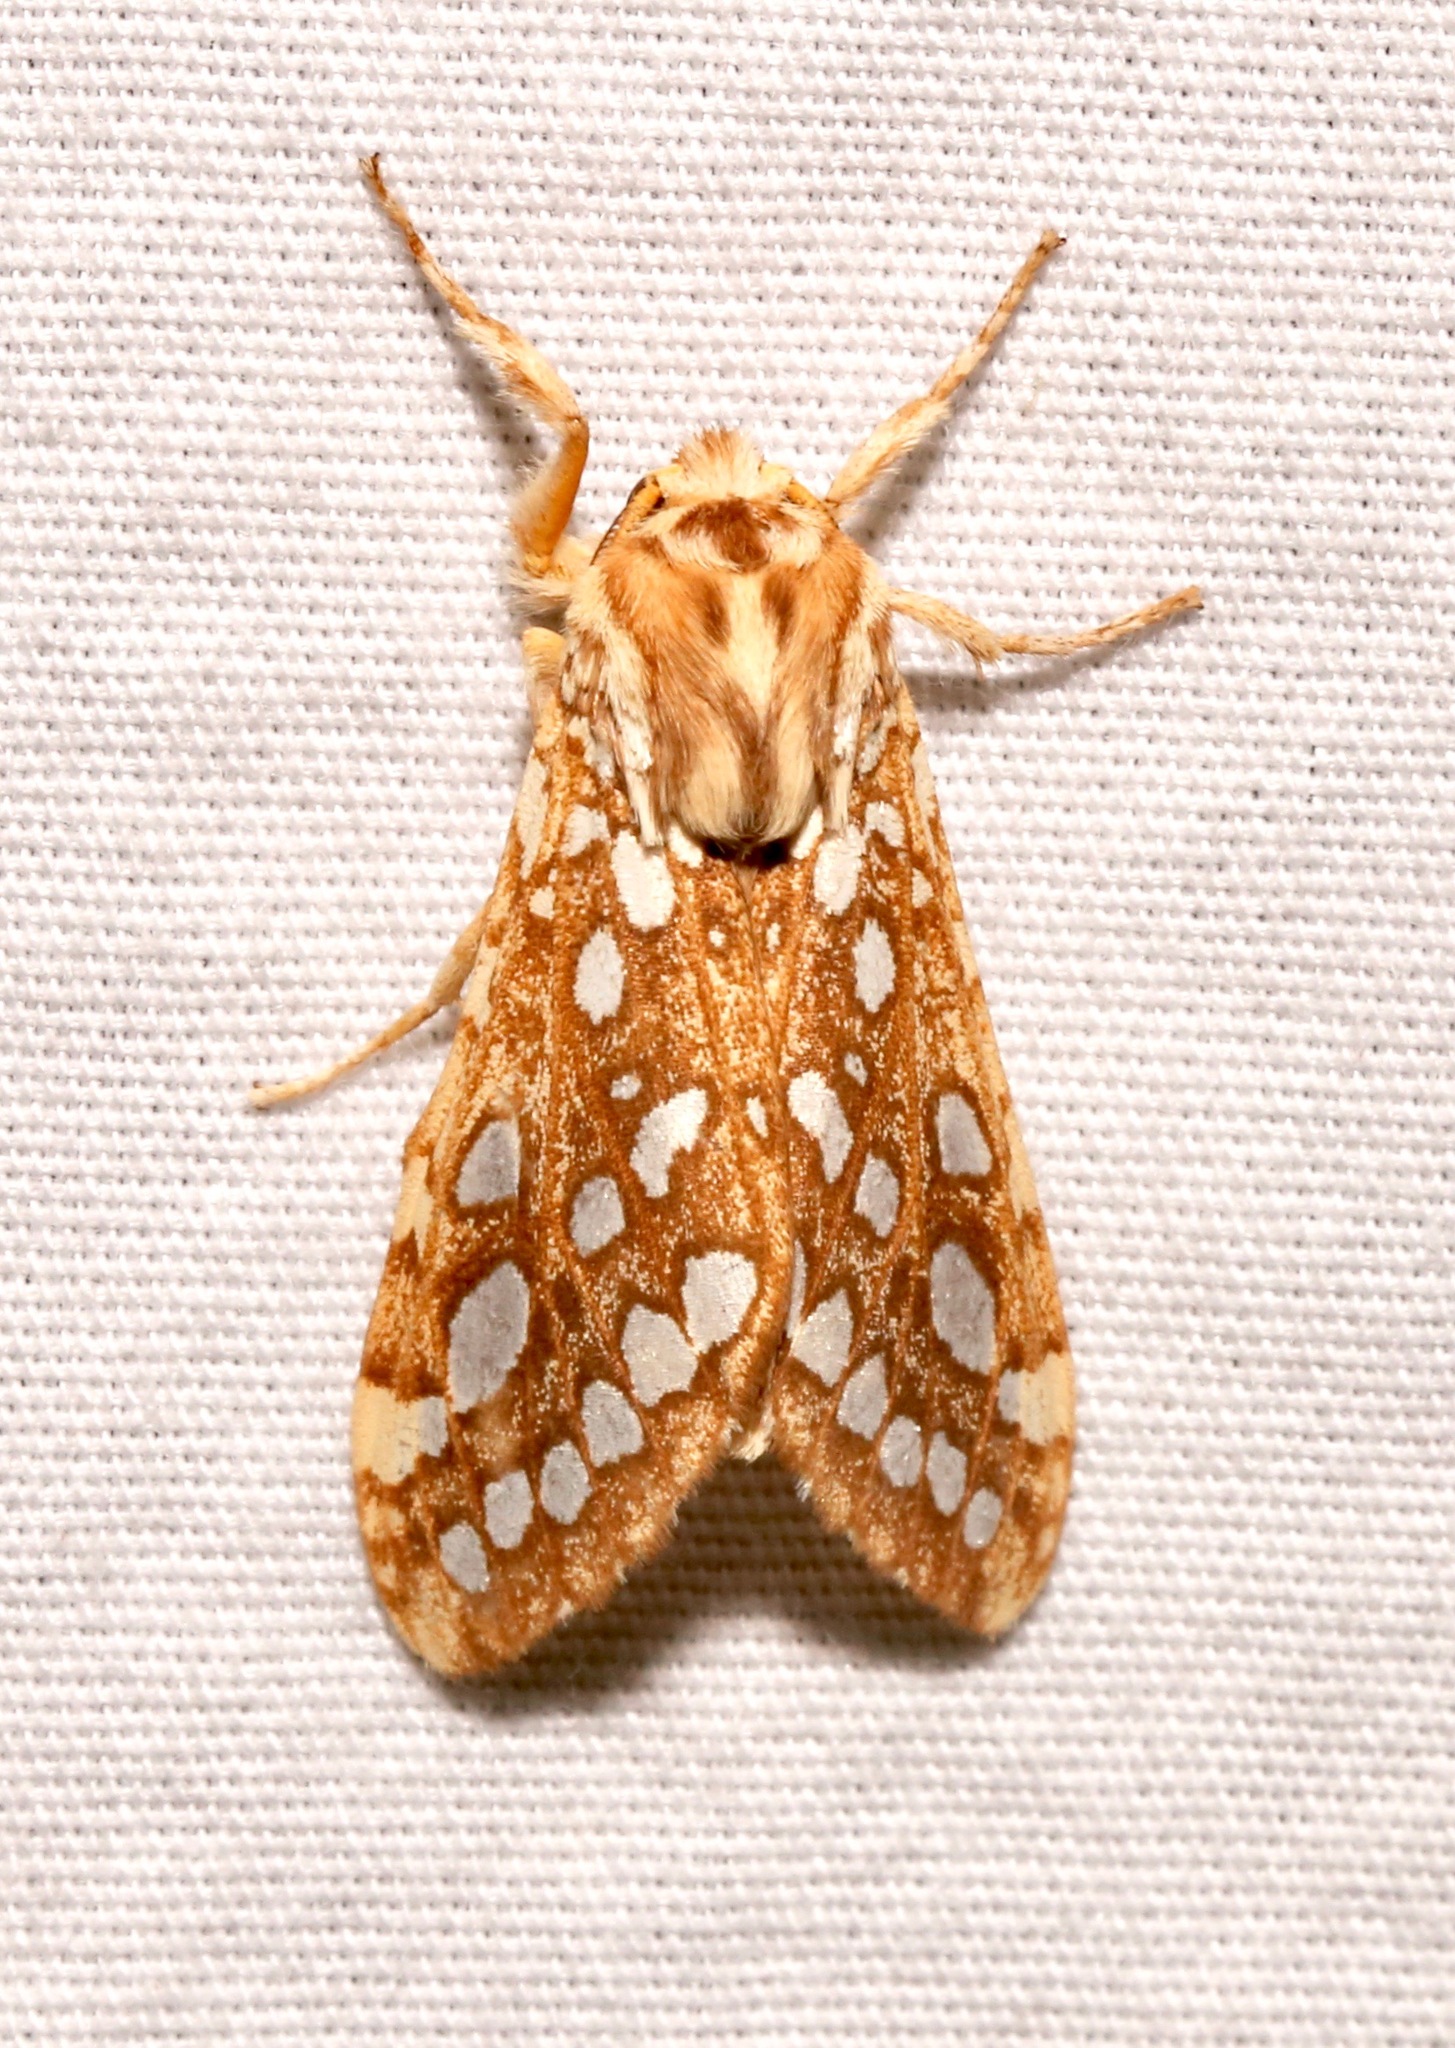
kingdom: Animalia
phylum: Arthropoda
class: Insecta
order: Lepidoptera
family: Erebidae
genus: Lophocampa
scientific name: Lophocampa argentata
